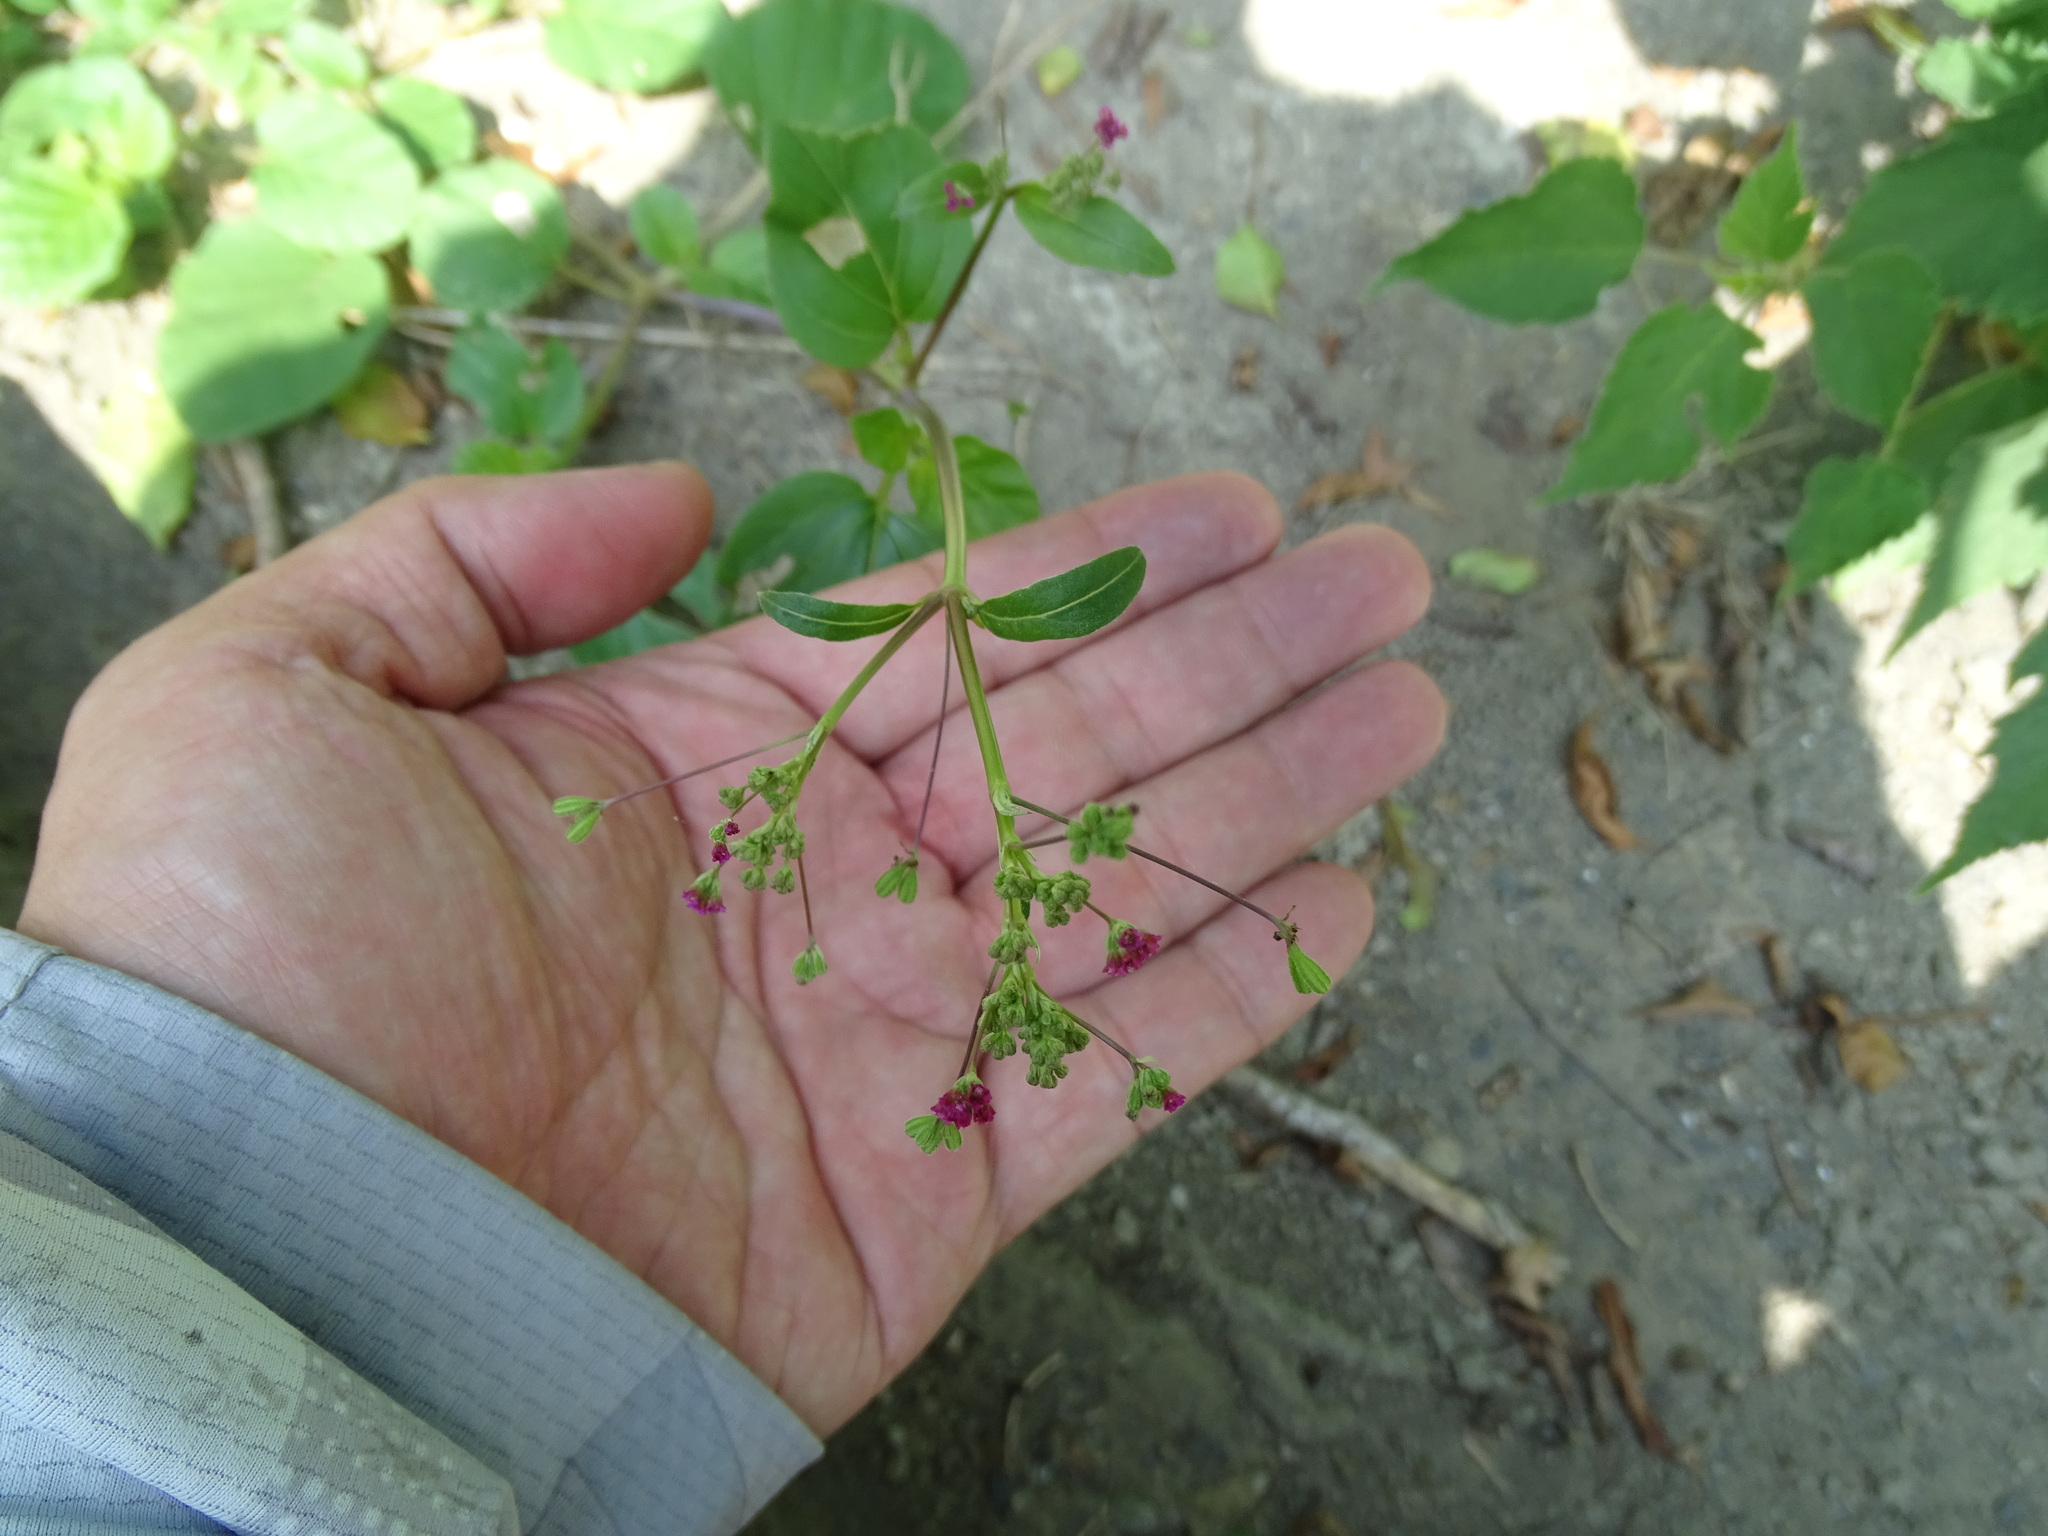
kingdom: Plantae
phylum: Tracheophyta
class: Magnoliopsida
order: Caryophyllales
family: Nyctaginaceae
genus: Boerhavia
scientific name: Boerhavia coccinea
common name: Scarlet spiderling
